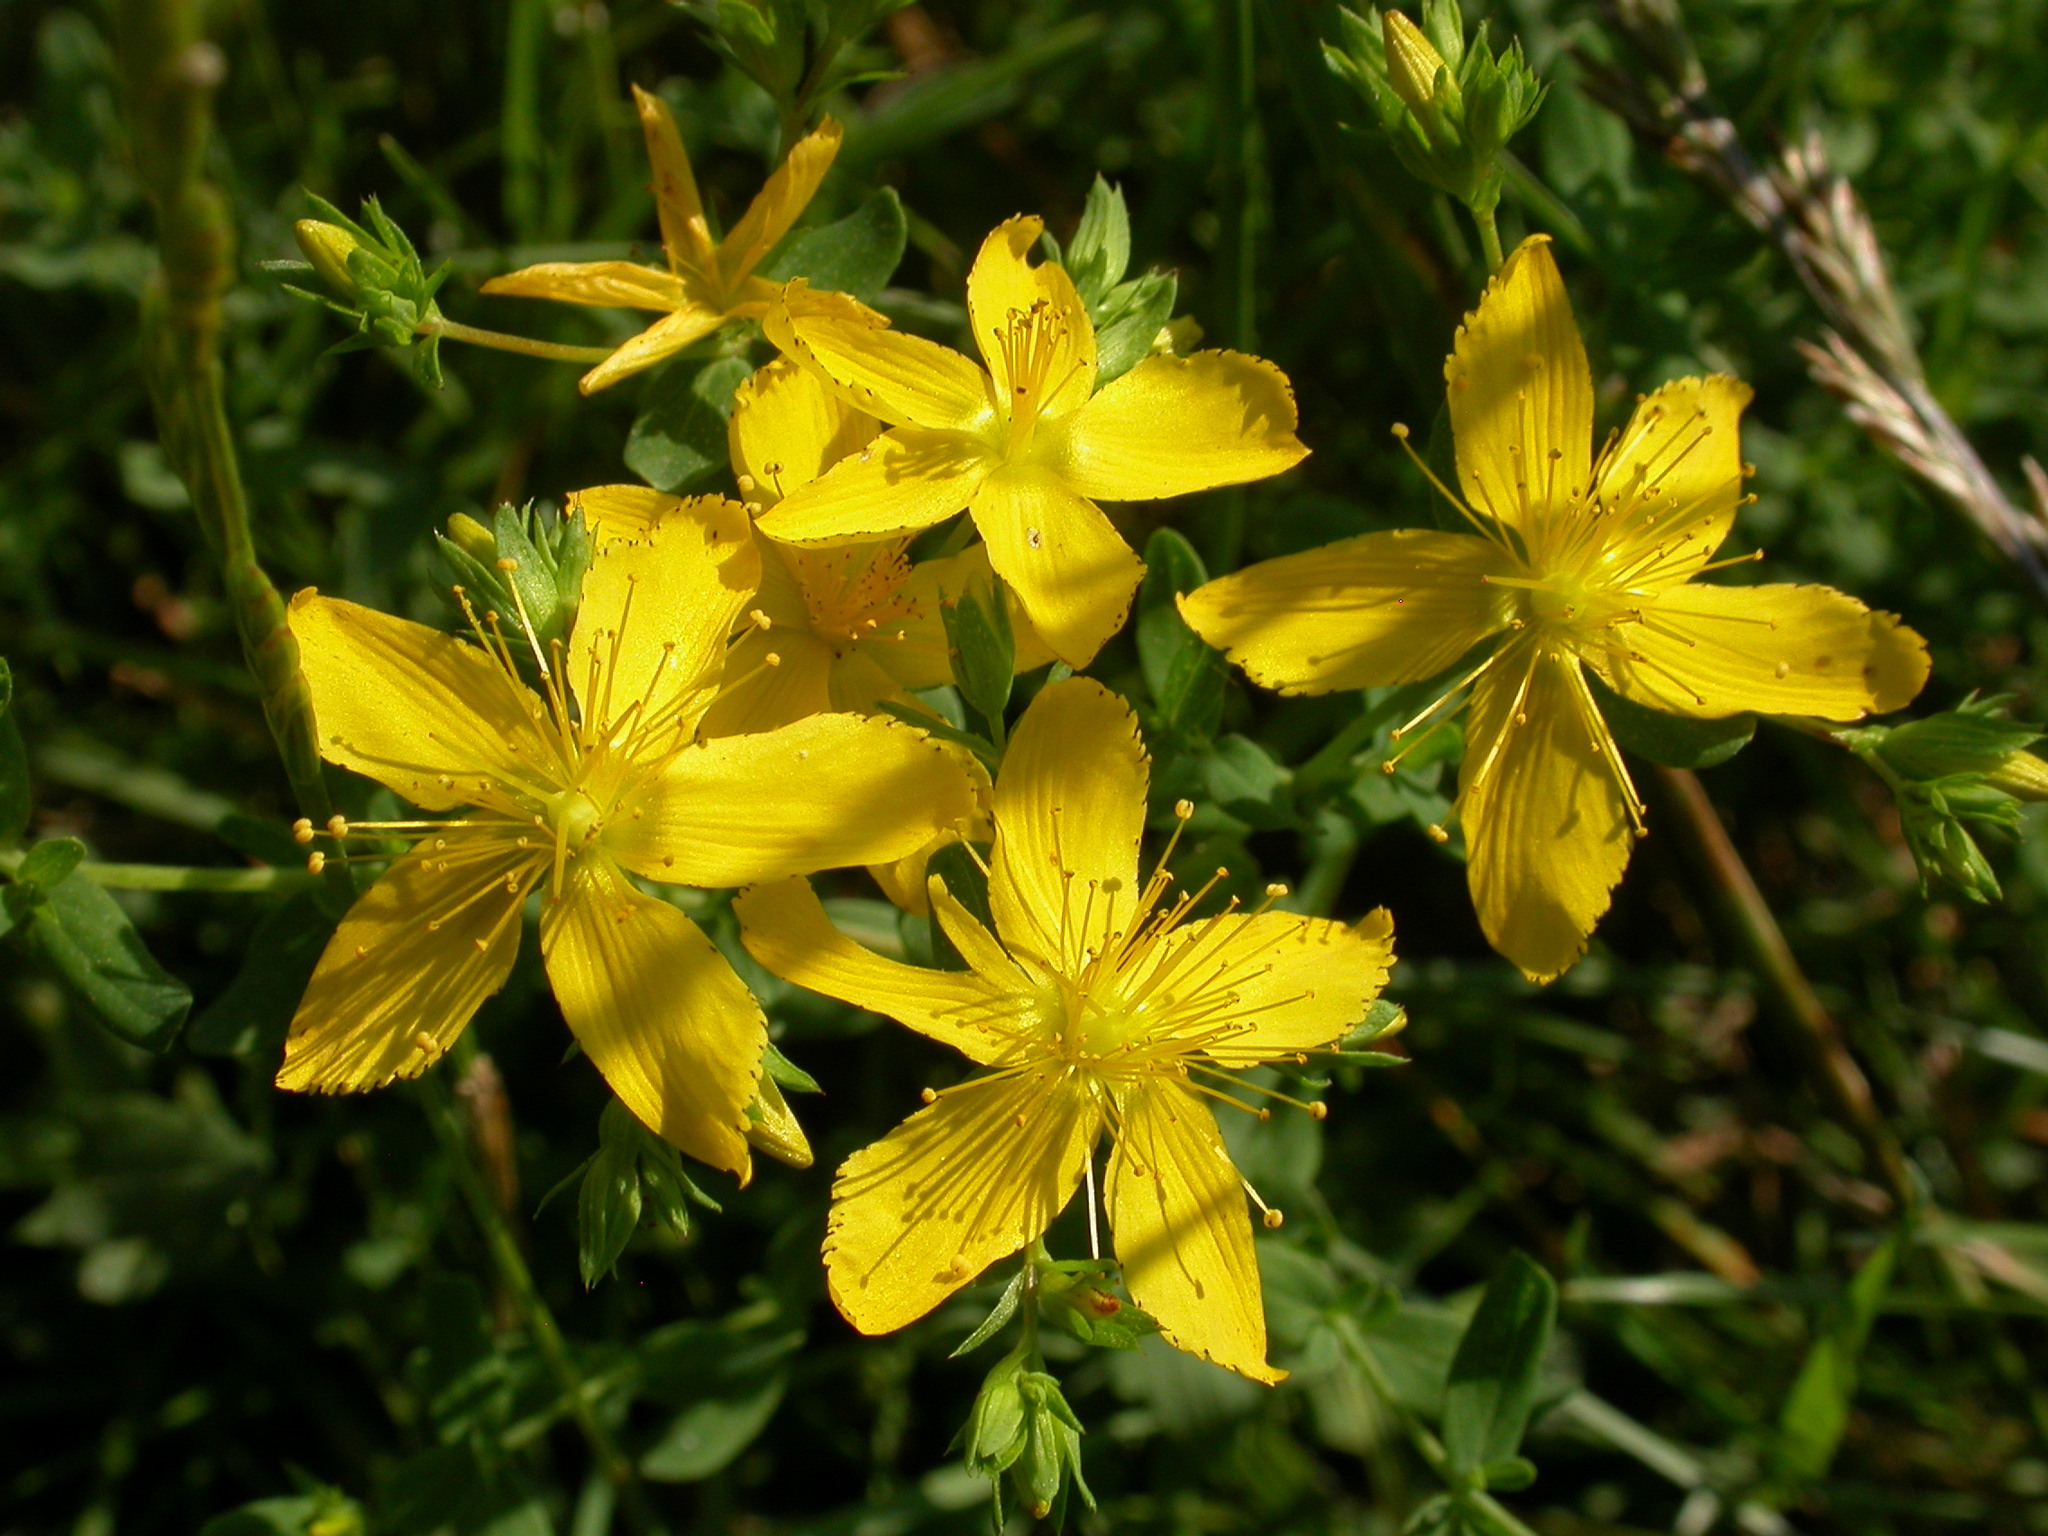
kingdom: Plantae
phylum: Tracheophyta
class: Magnoliopsida
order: Malpighiales
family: Hypericaceae
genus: Hypericum
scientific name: Hypericum perforatum
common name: Common st. johnswort
